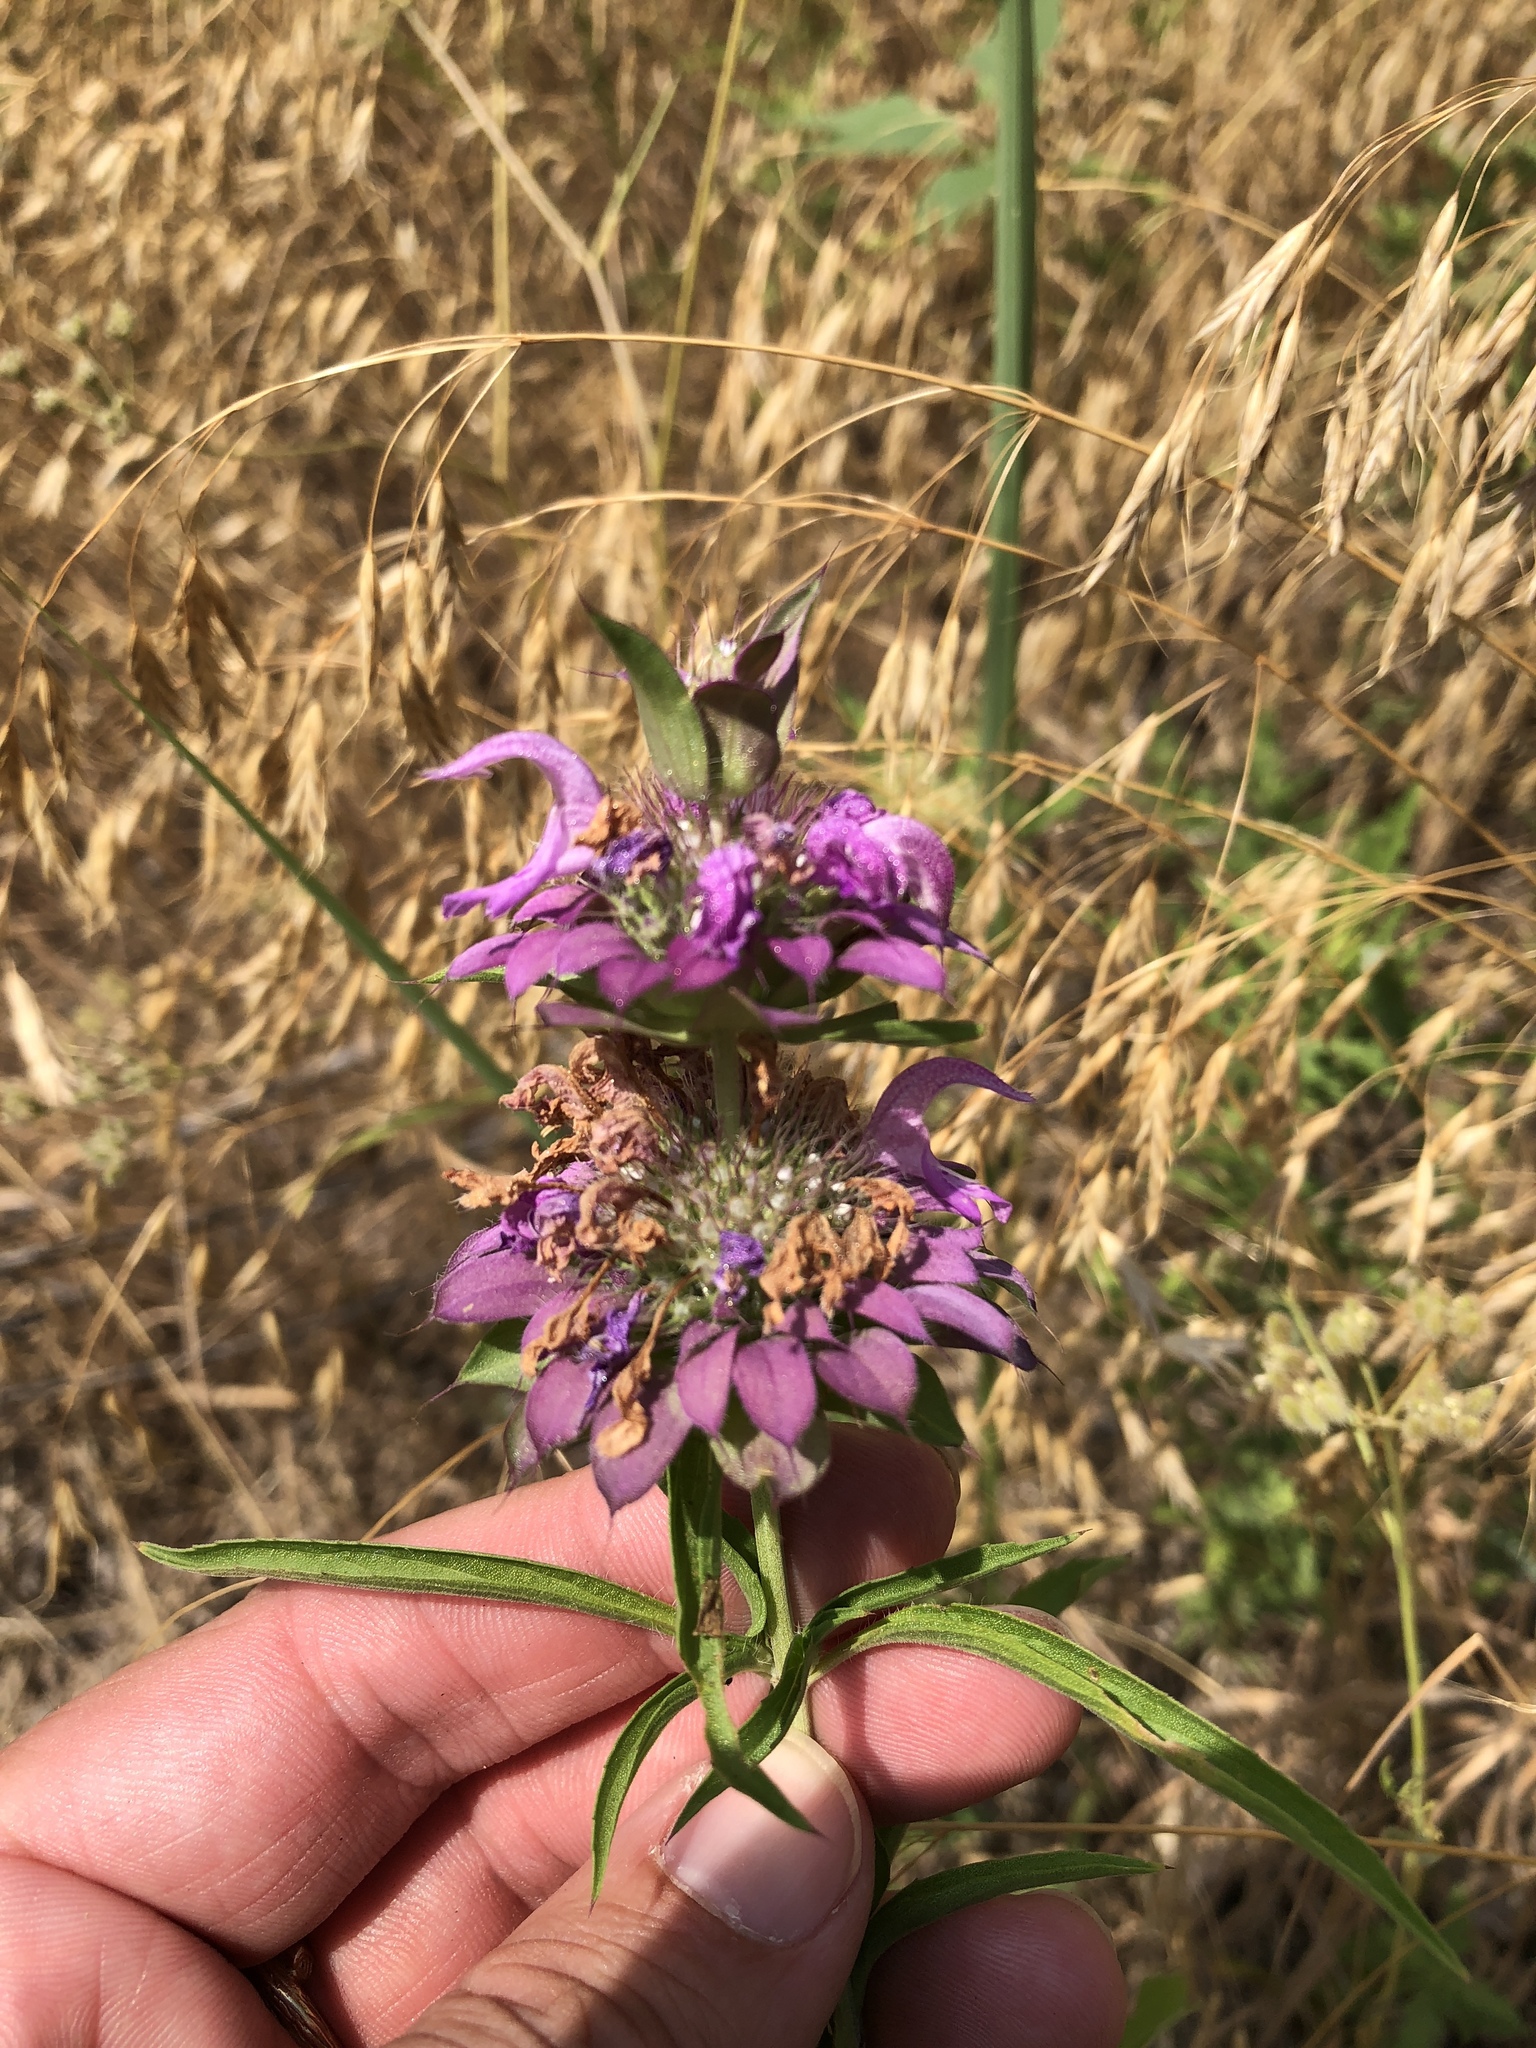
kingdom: Plantae
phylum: Tracheophyta
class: Magnoliopsida
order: Lamiales
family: Lamiaceae
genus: Monarda
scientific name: Monarda citriodora
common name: Lemon beebalm
